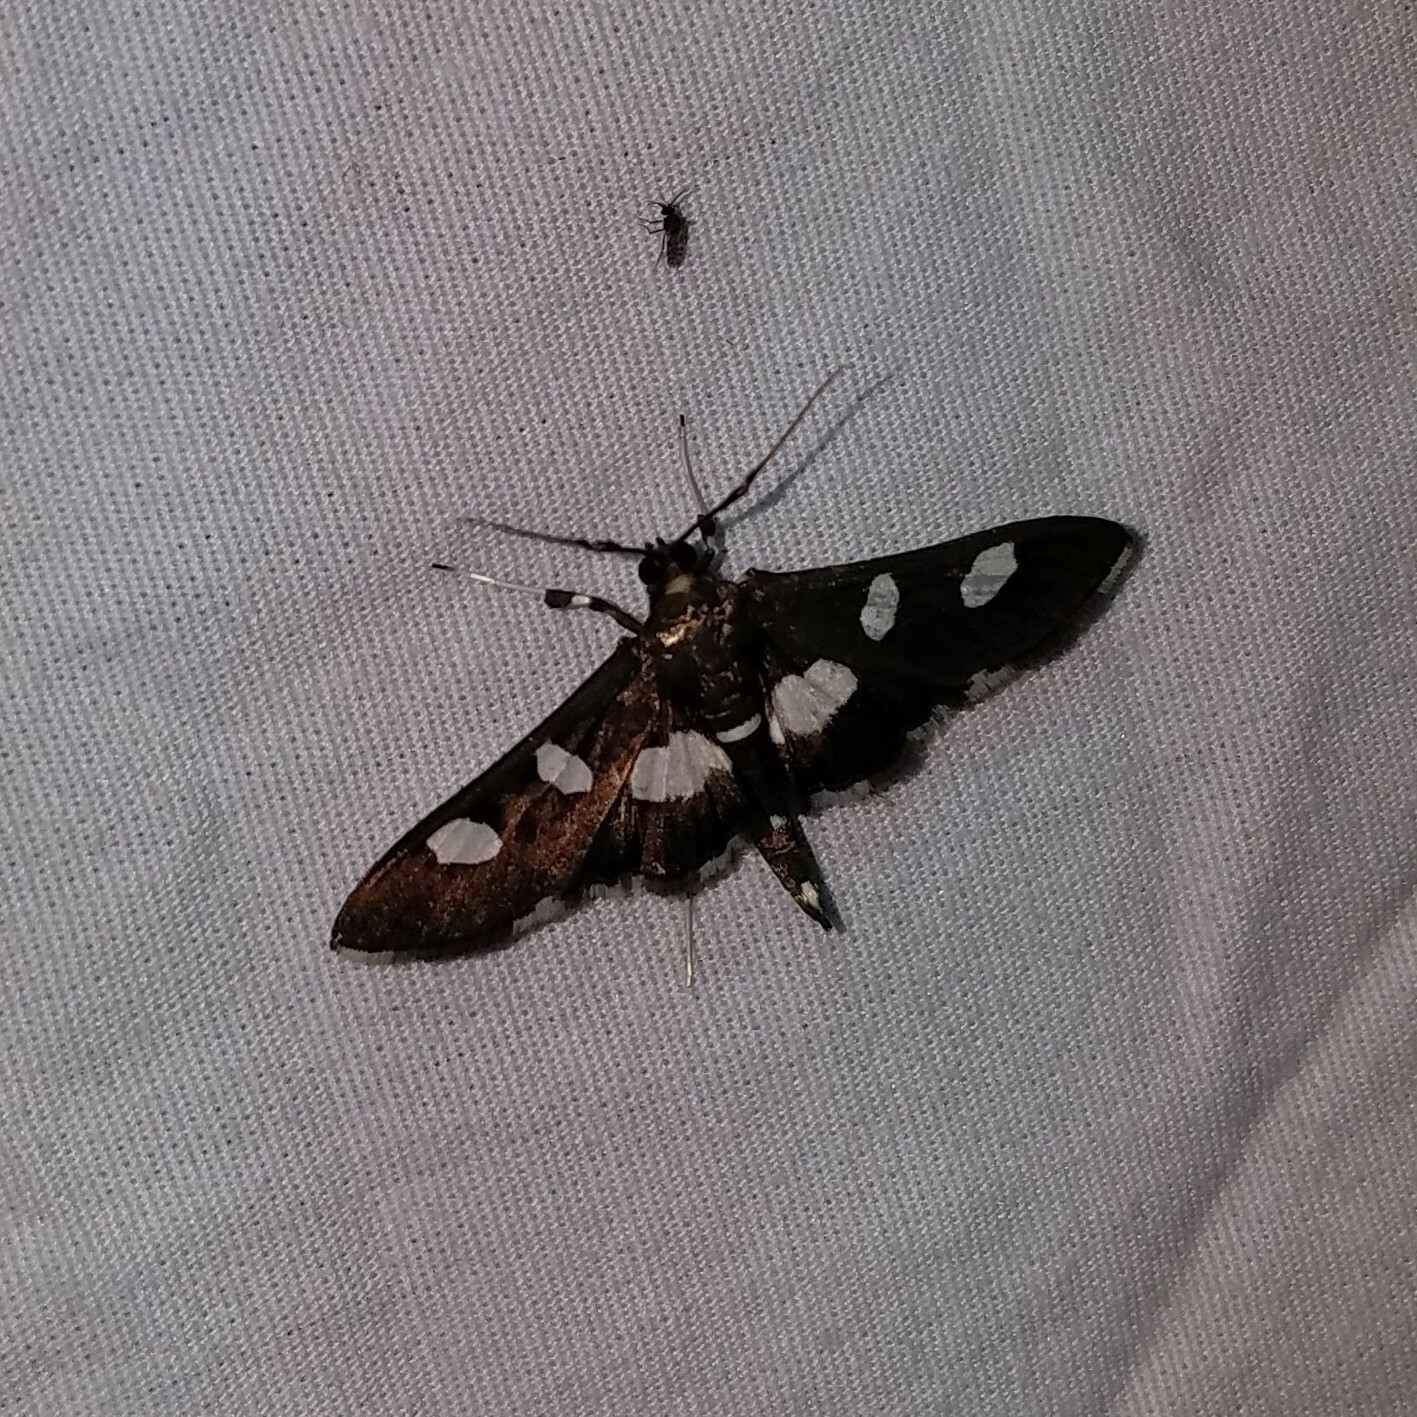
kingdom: Animalia
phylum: Arthropoda
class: Insecta
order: Lepidoptera
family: Crambidae
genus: Desmia
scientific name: Desmia
